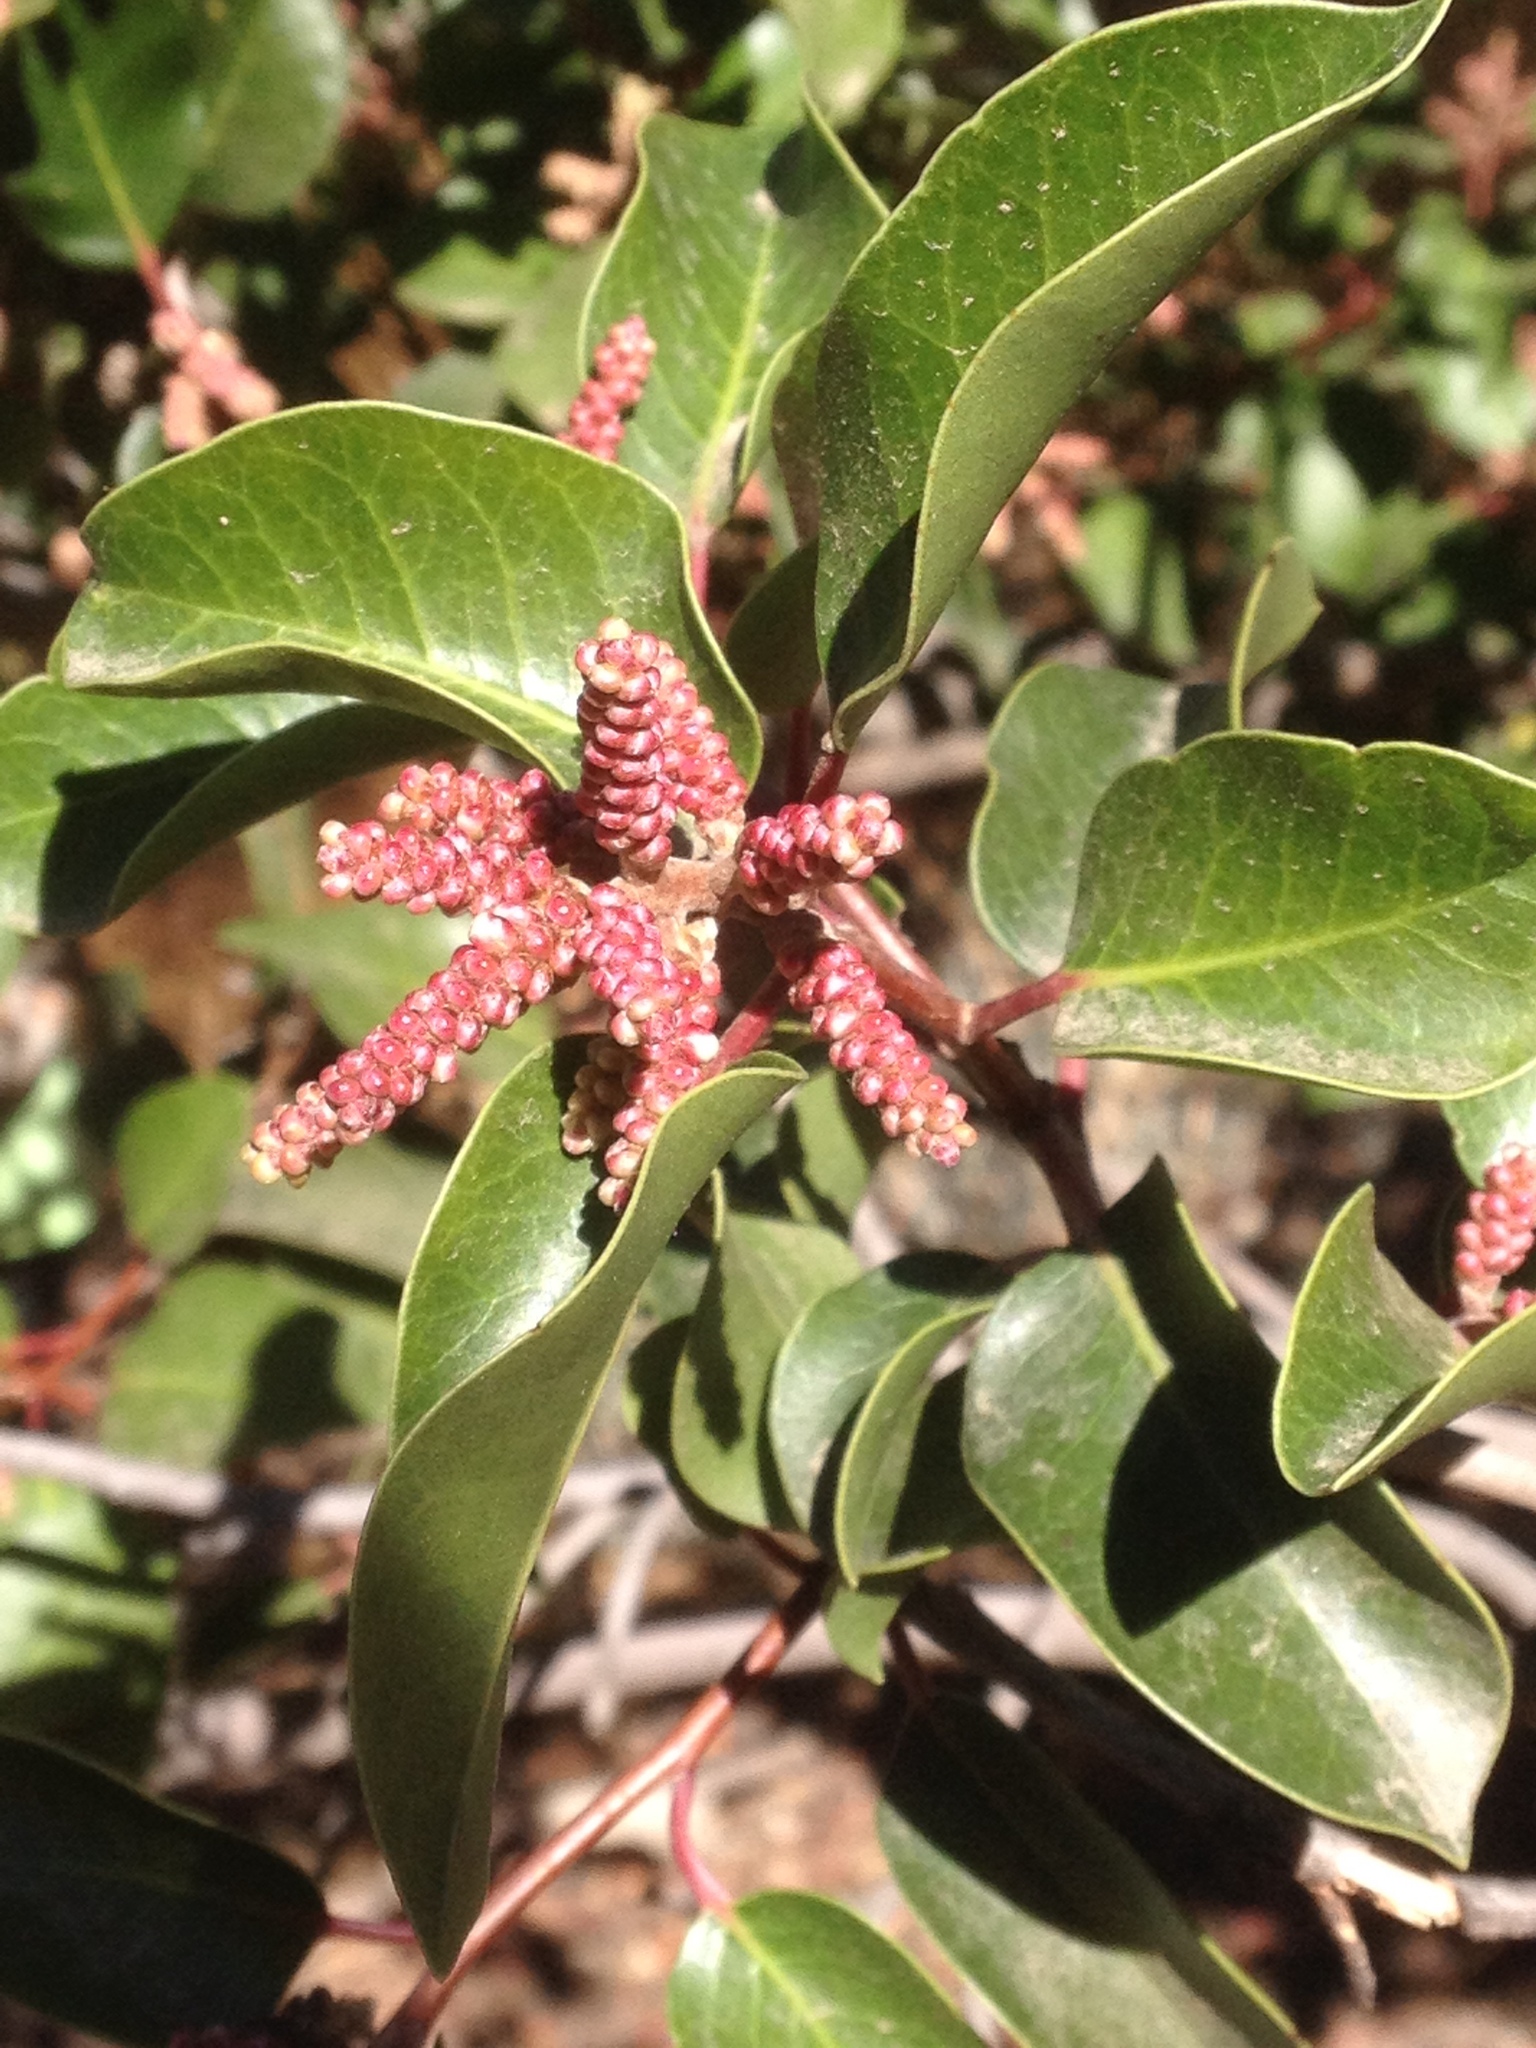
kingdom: Plantae
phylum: Tracheophyta
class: Magnoliopsida
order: Sapindales
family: Anacardiaceae
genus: Rhus
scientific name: Rhus ovata
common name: Sugar sumac
